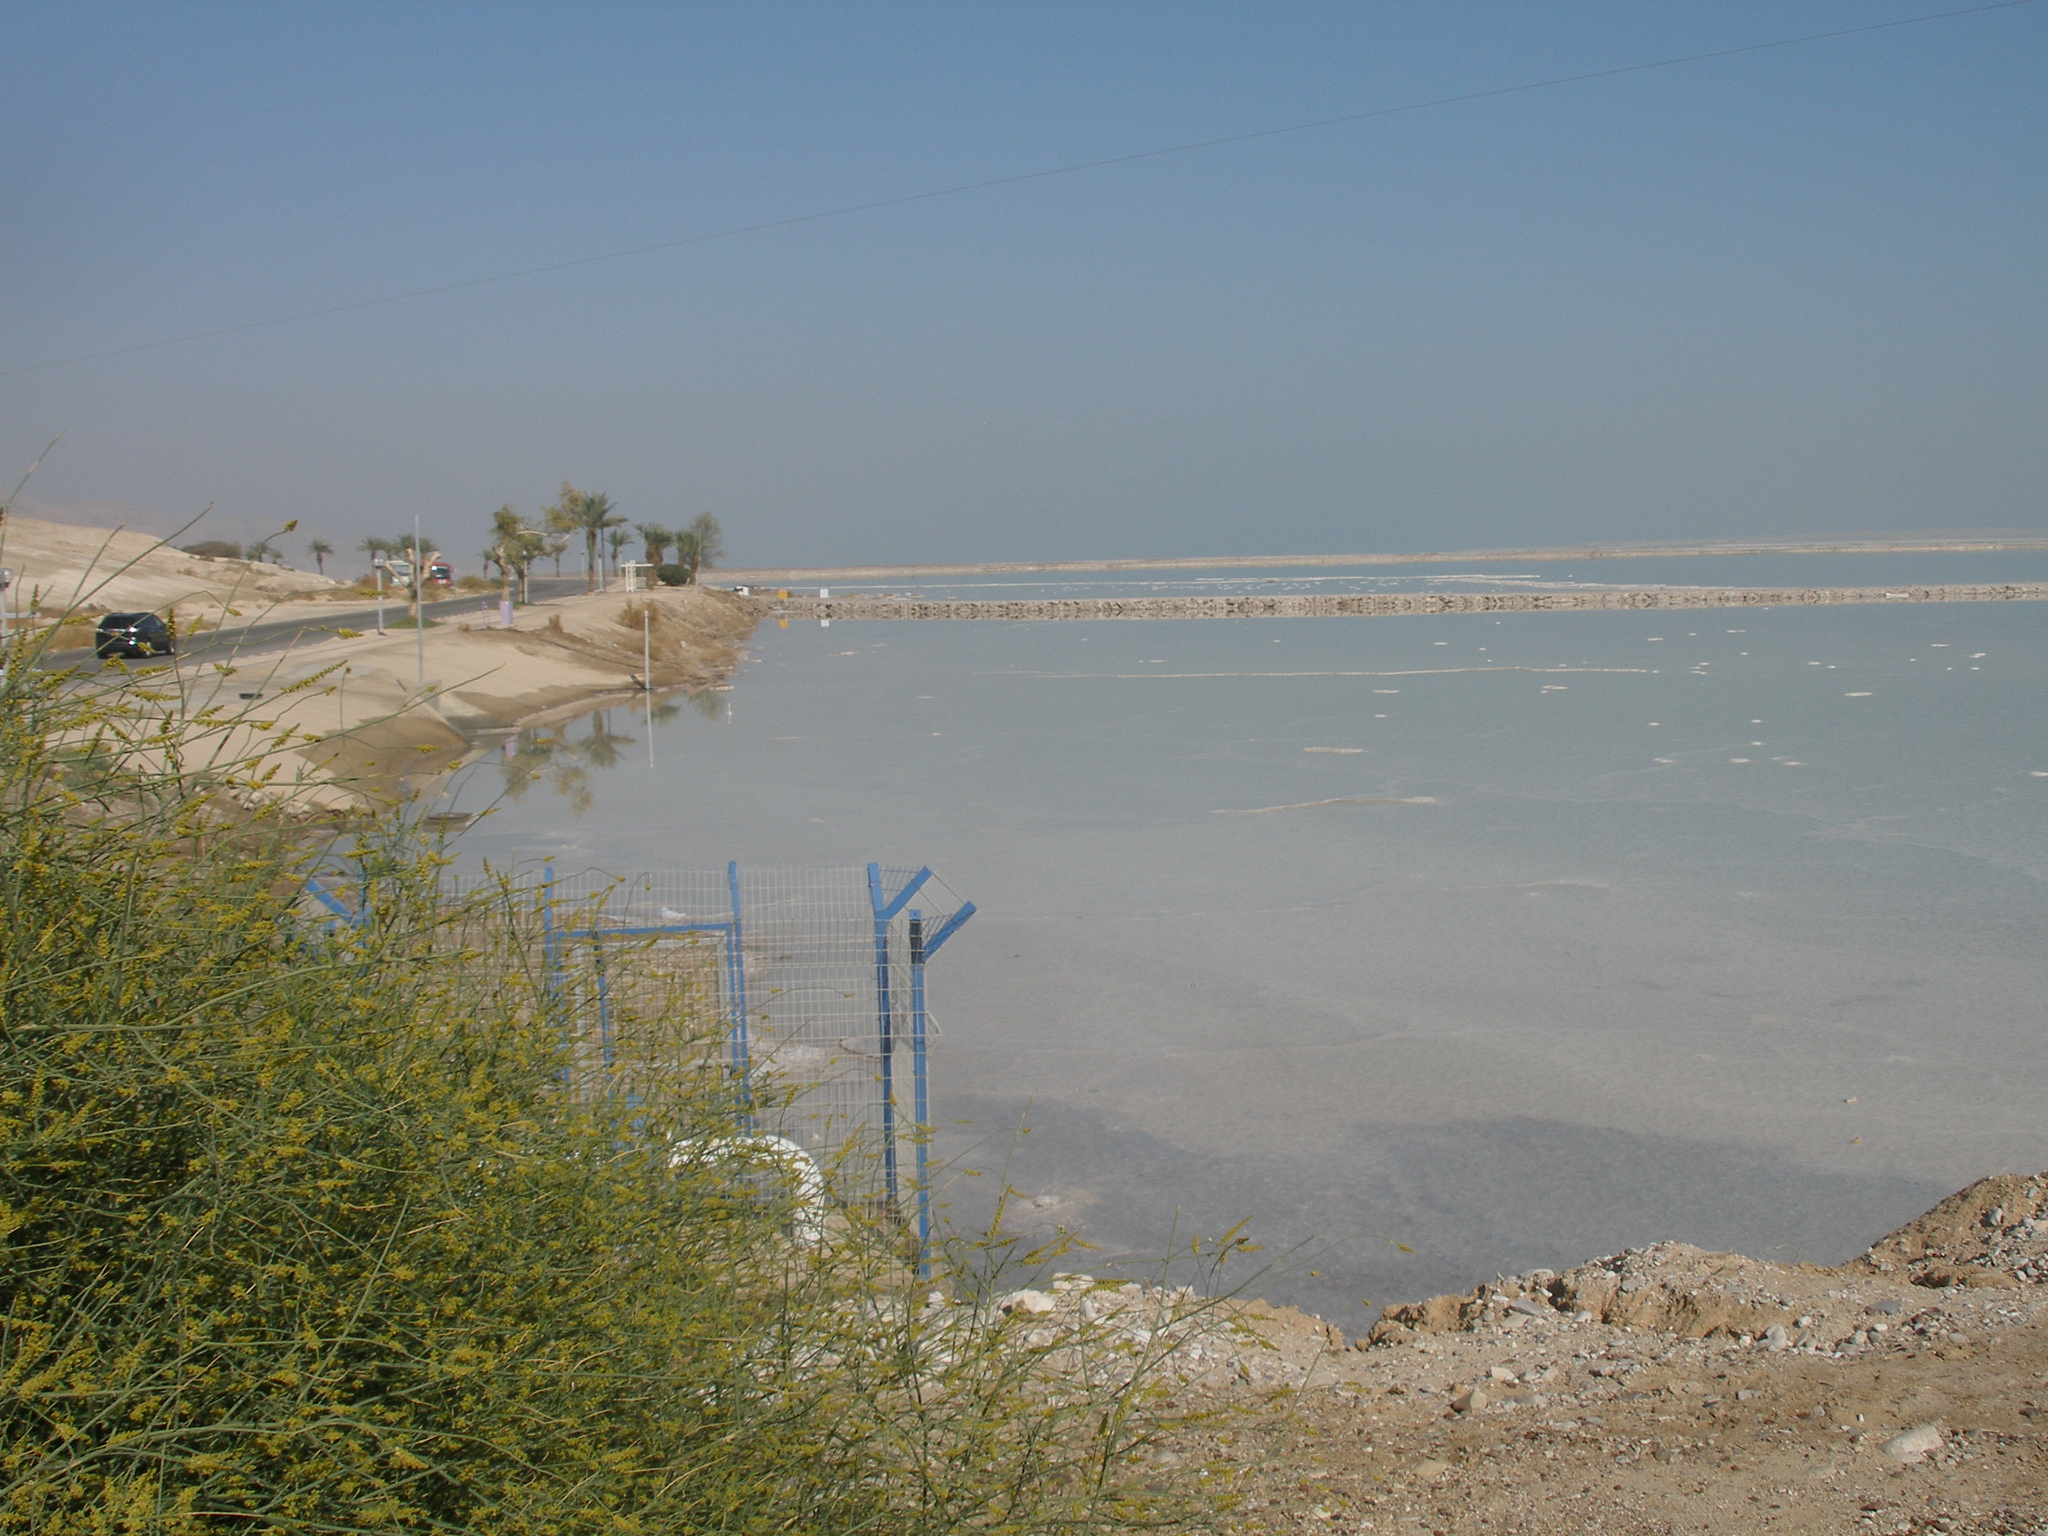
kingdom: Plantae
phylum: Tracheophyta
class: Magnoliopsida
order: Brassicales
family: Resedaceae
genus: Ochradenus
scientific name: Ochradenus baccatus
